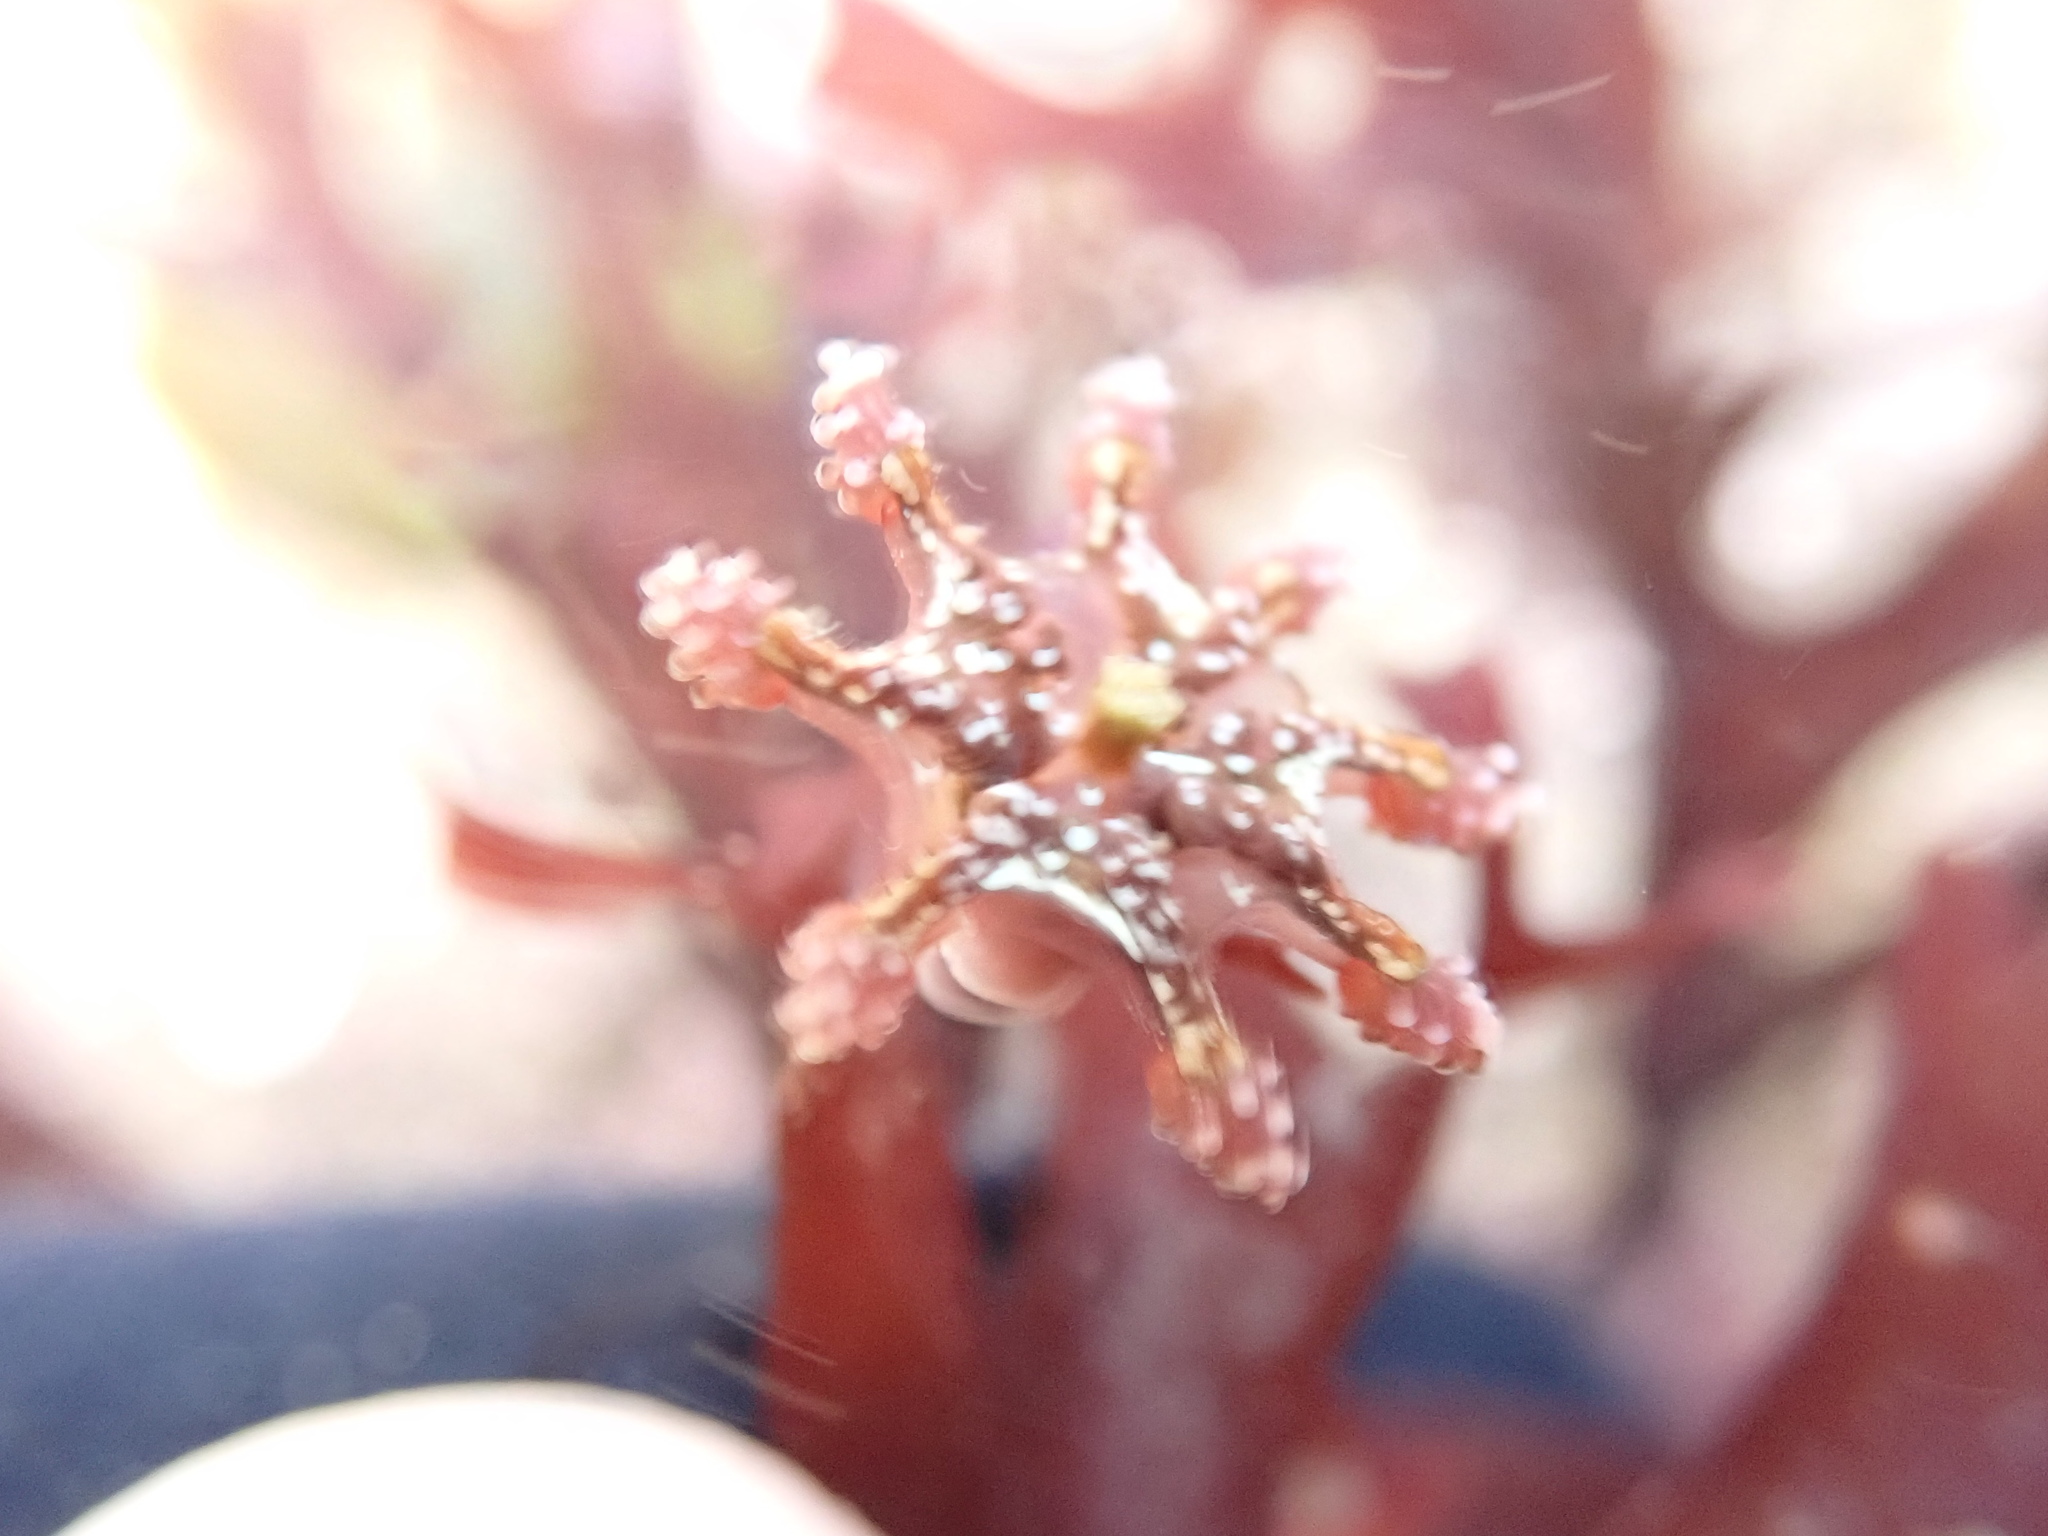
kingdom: Animalia
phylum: Cnidaria
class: Staurozoa
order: Stauromedusae
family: Kishinouyeidae
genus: Calvadosia
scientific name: Calvadosia cruxmelitensis
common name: St. john's jellyfish
